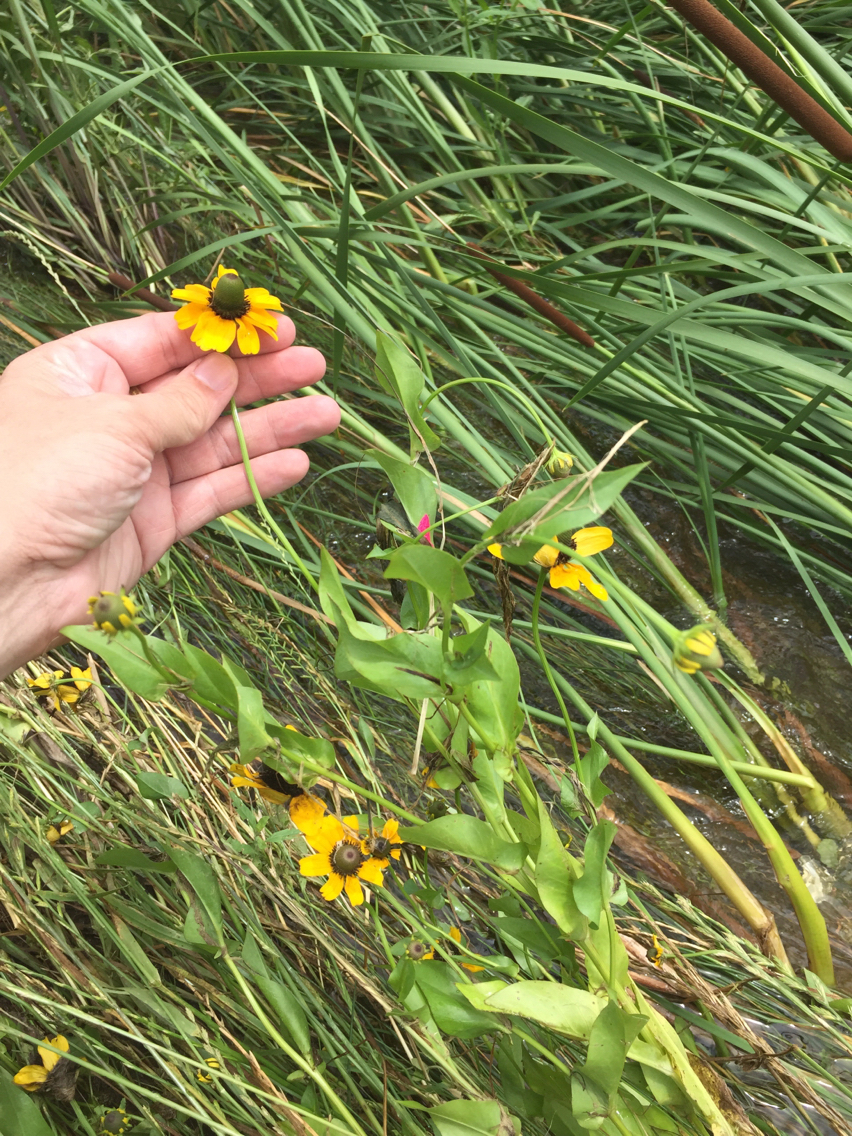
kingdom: Plantae
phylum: Tracheophyta
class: Magnoliopsida
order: Asterales
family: Asteraceae
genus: Rudbeckia
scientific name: Rudbeckia amplexicaulis
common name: Clasping-leaf coneflower
